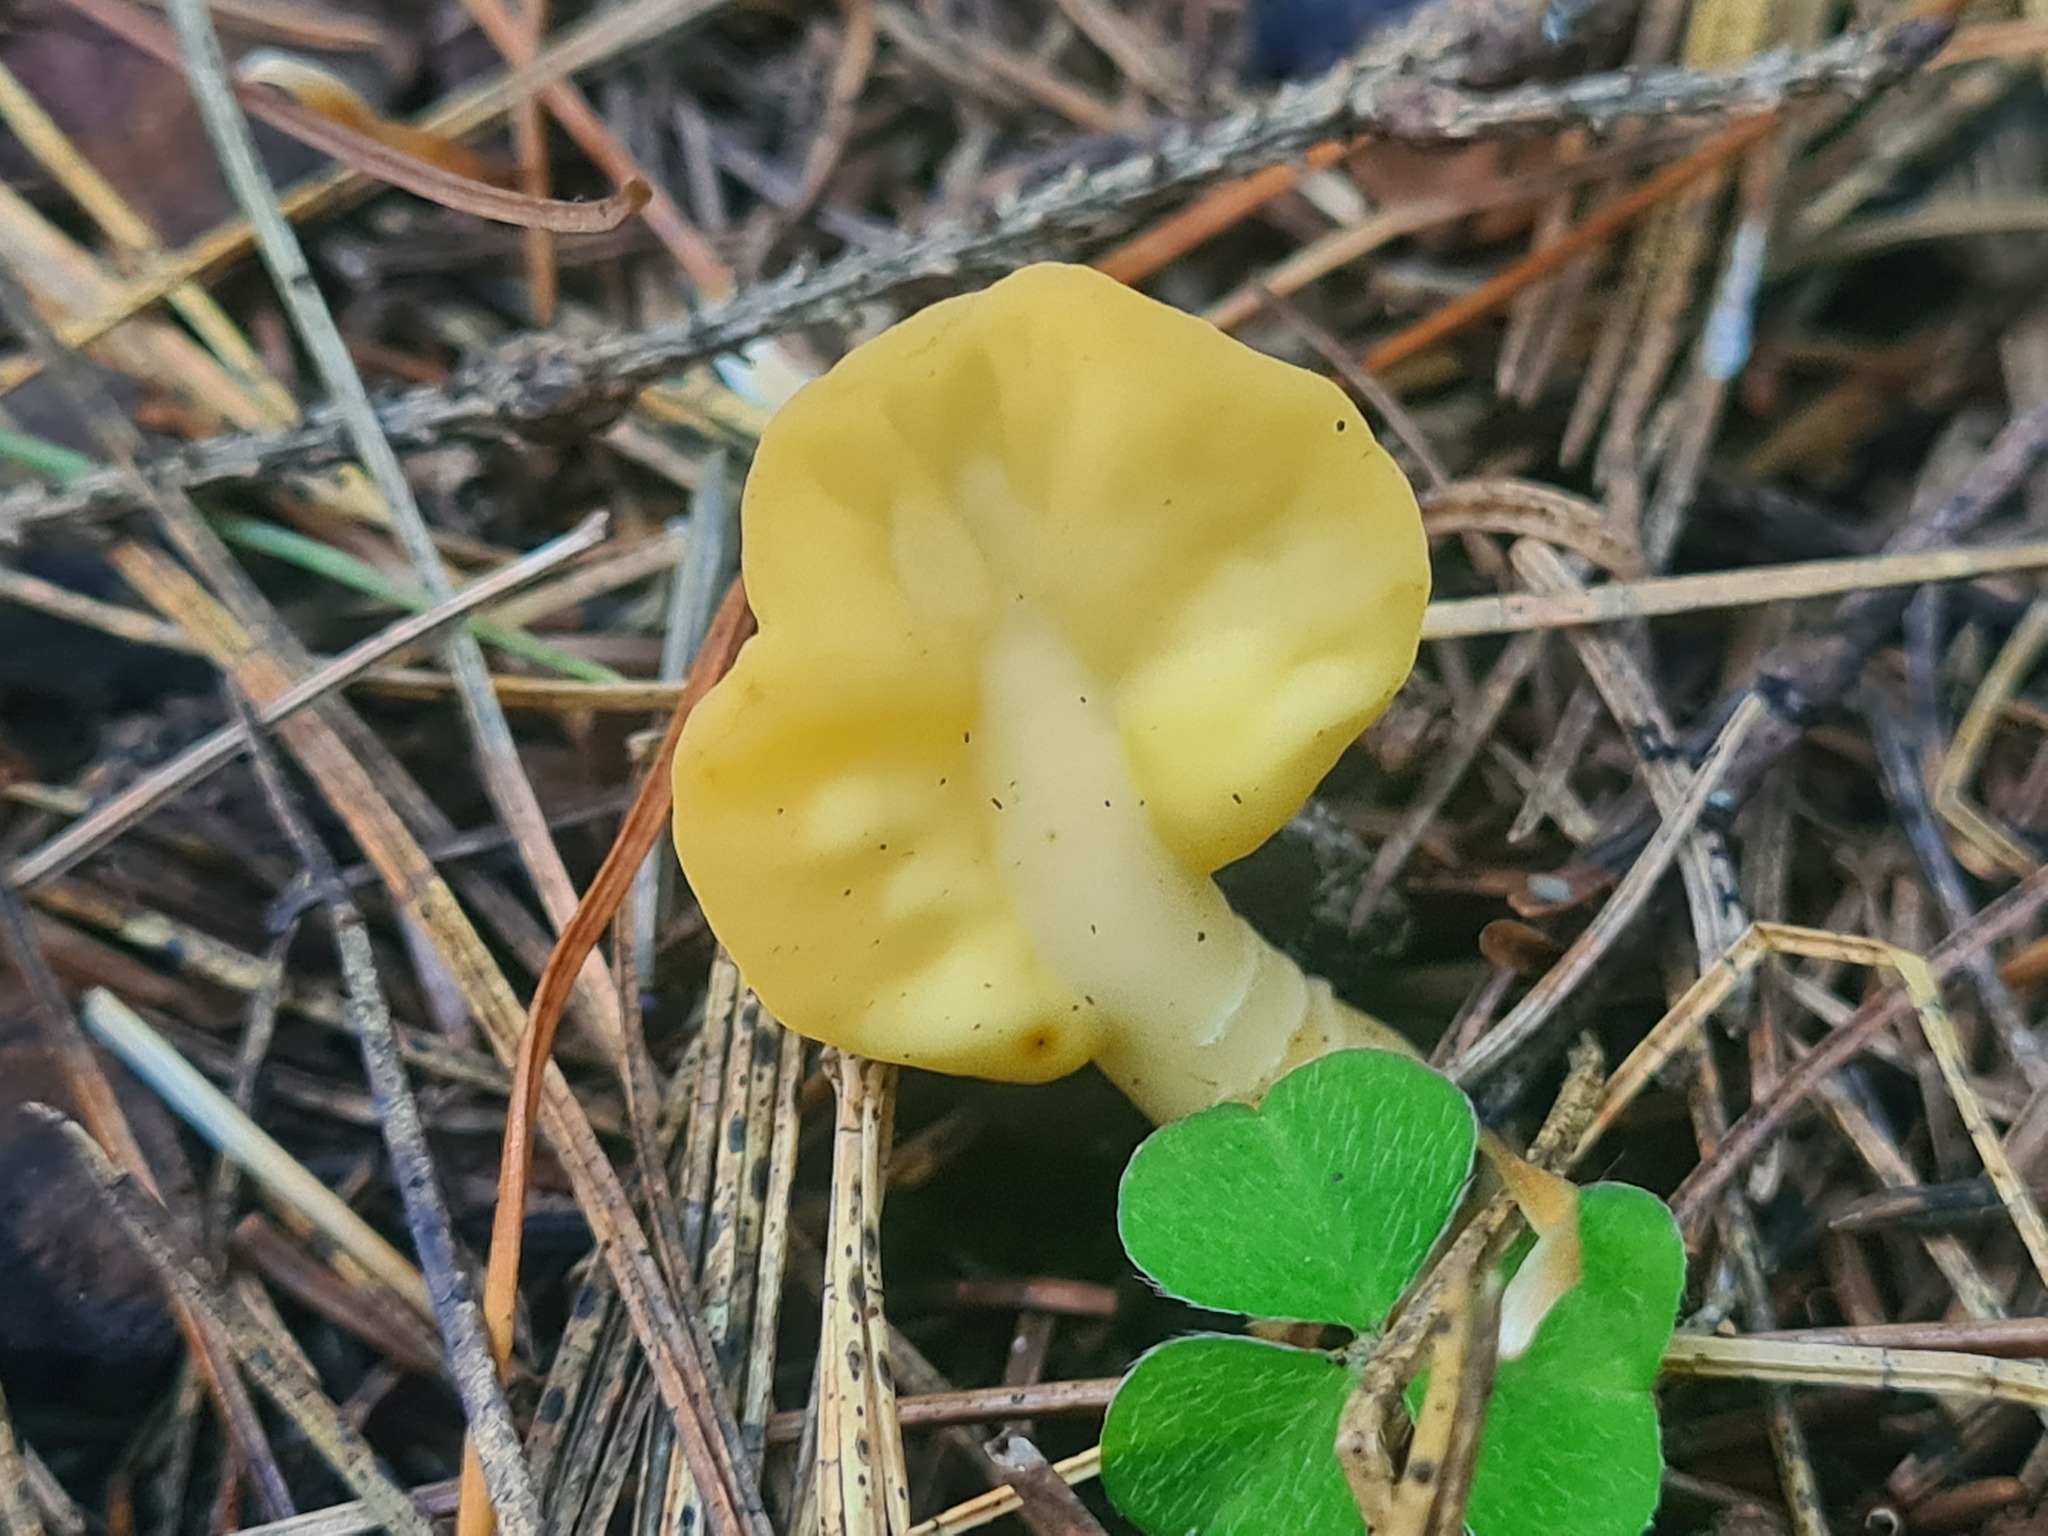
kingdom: Fungi
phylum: Ascomycota
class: Leotiomycetes
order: Rhytismatales
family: Cudoniaceae
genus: Spathularia
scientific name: Spathularia flavida
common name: Yellow fan
